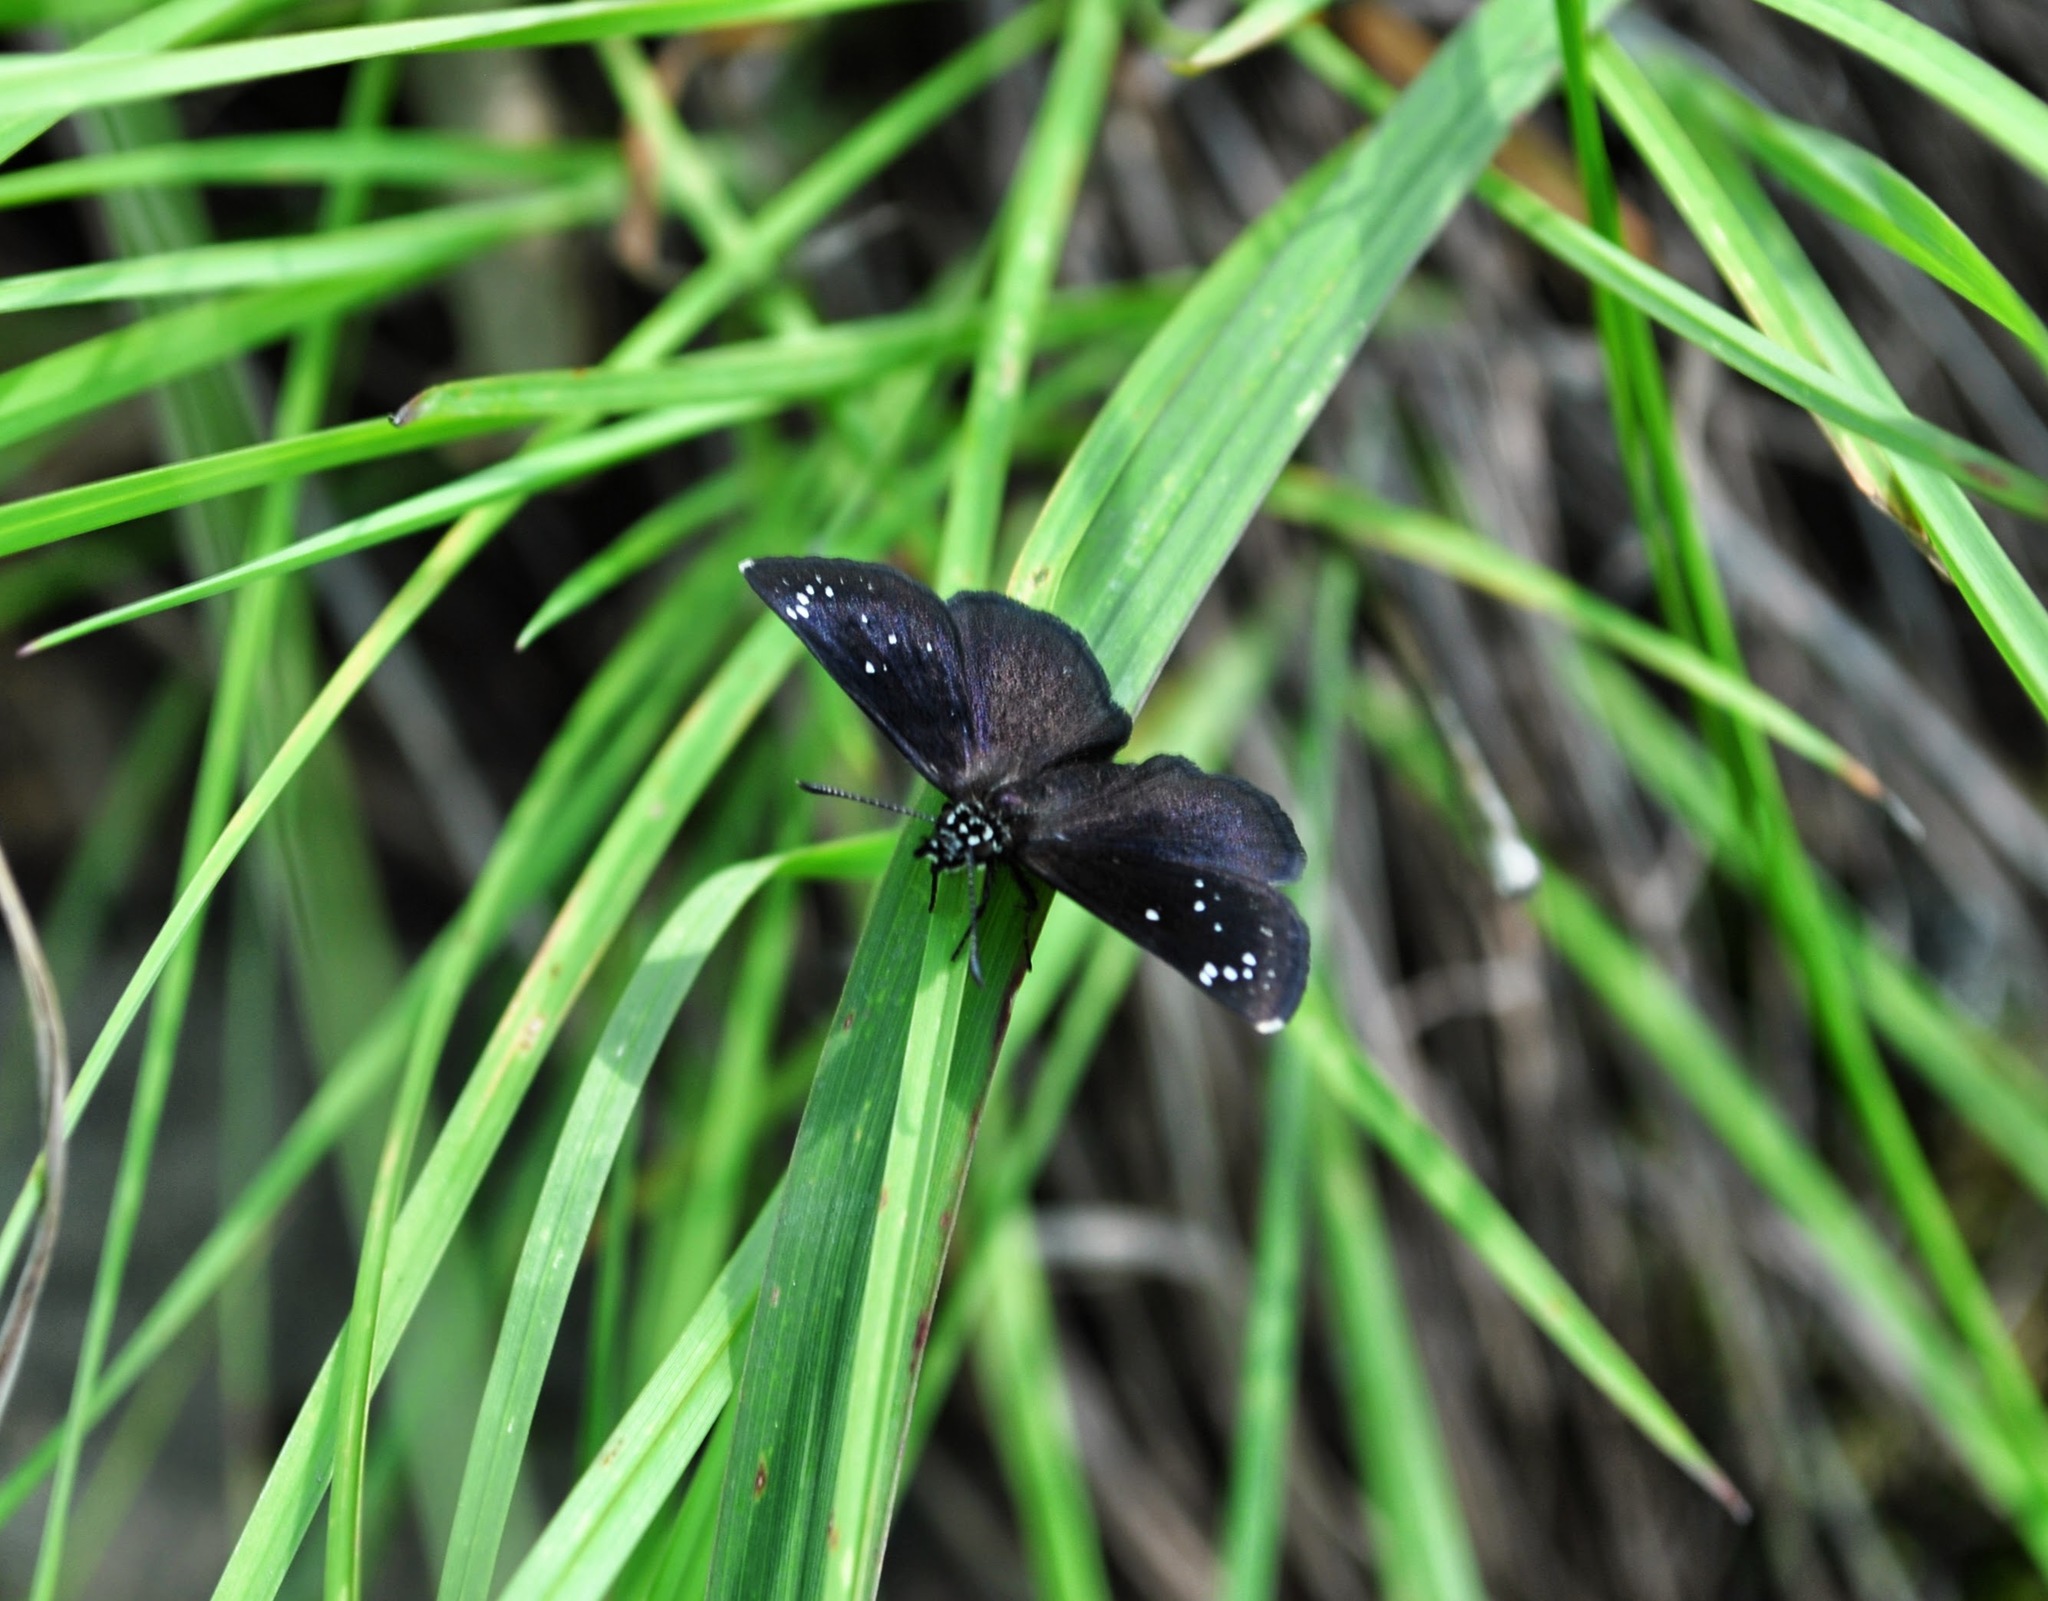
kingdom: Animalia
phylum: Arthropoda
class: Insecta
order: Lepidoptera
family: Hesperiidae
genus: Pholisora
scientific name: Pholisora catullus
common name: Common sootywing
